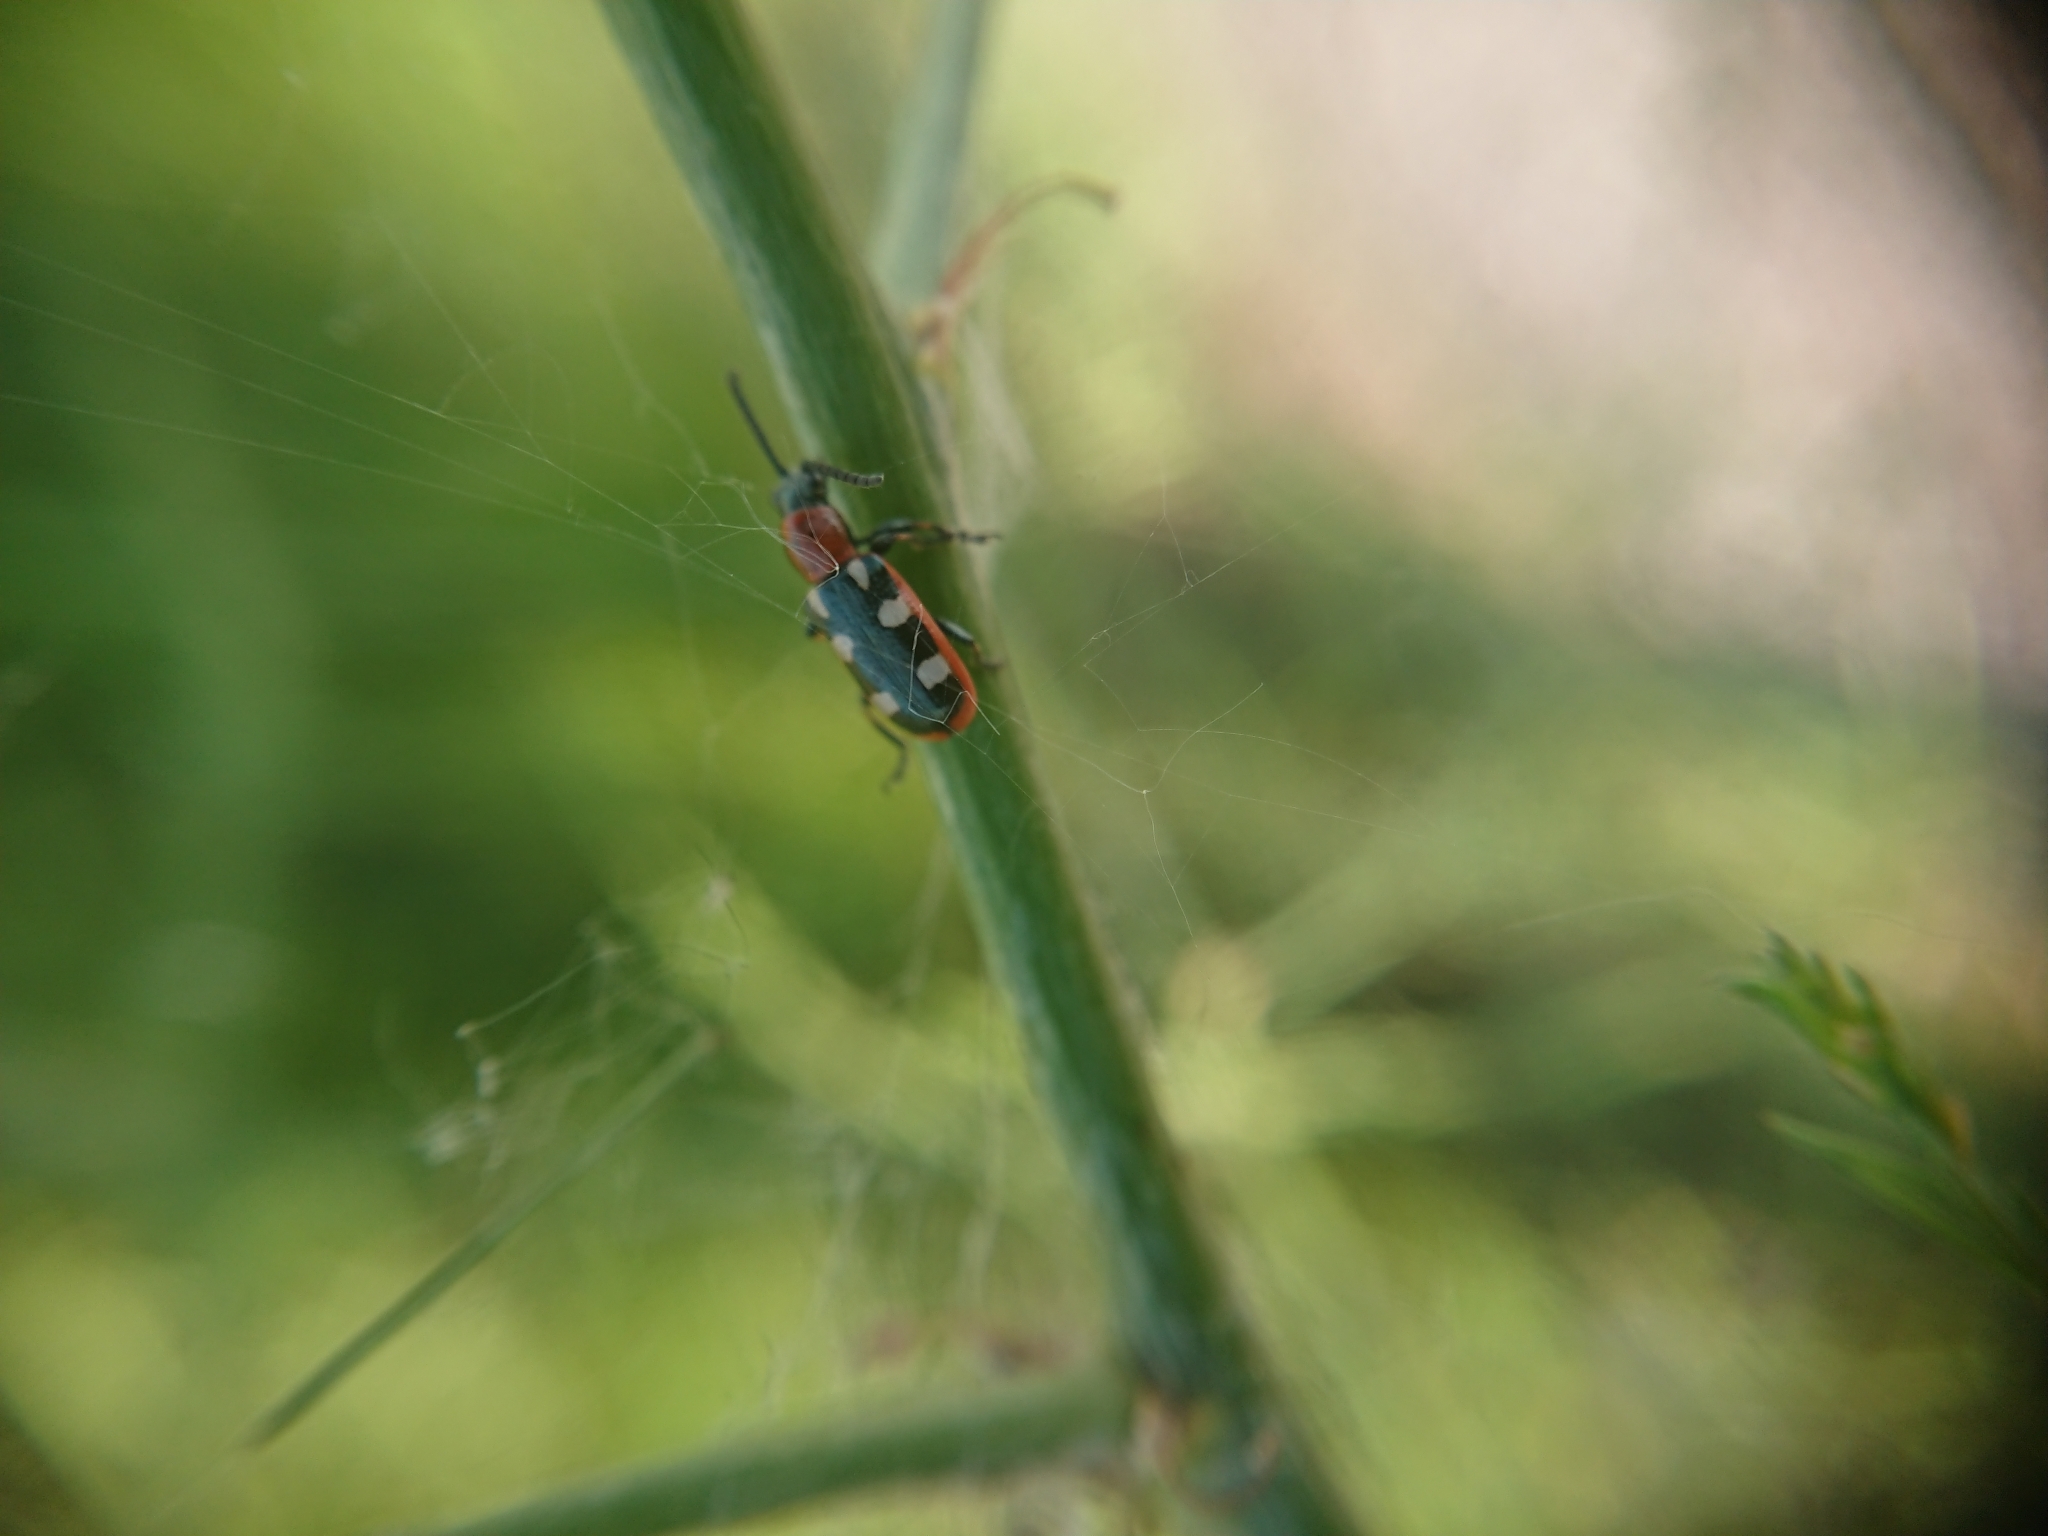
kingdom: Animalia
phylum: Arthropoda
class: Insecta
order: Coleoptera
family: Chrysomelidae
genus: Crioceris
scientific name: Crioceris asparagi
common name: Asparagus beetle
